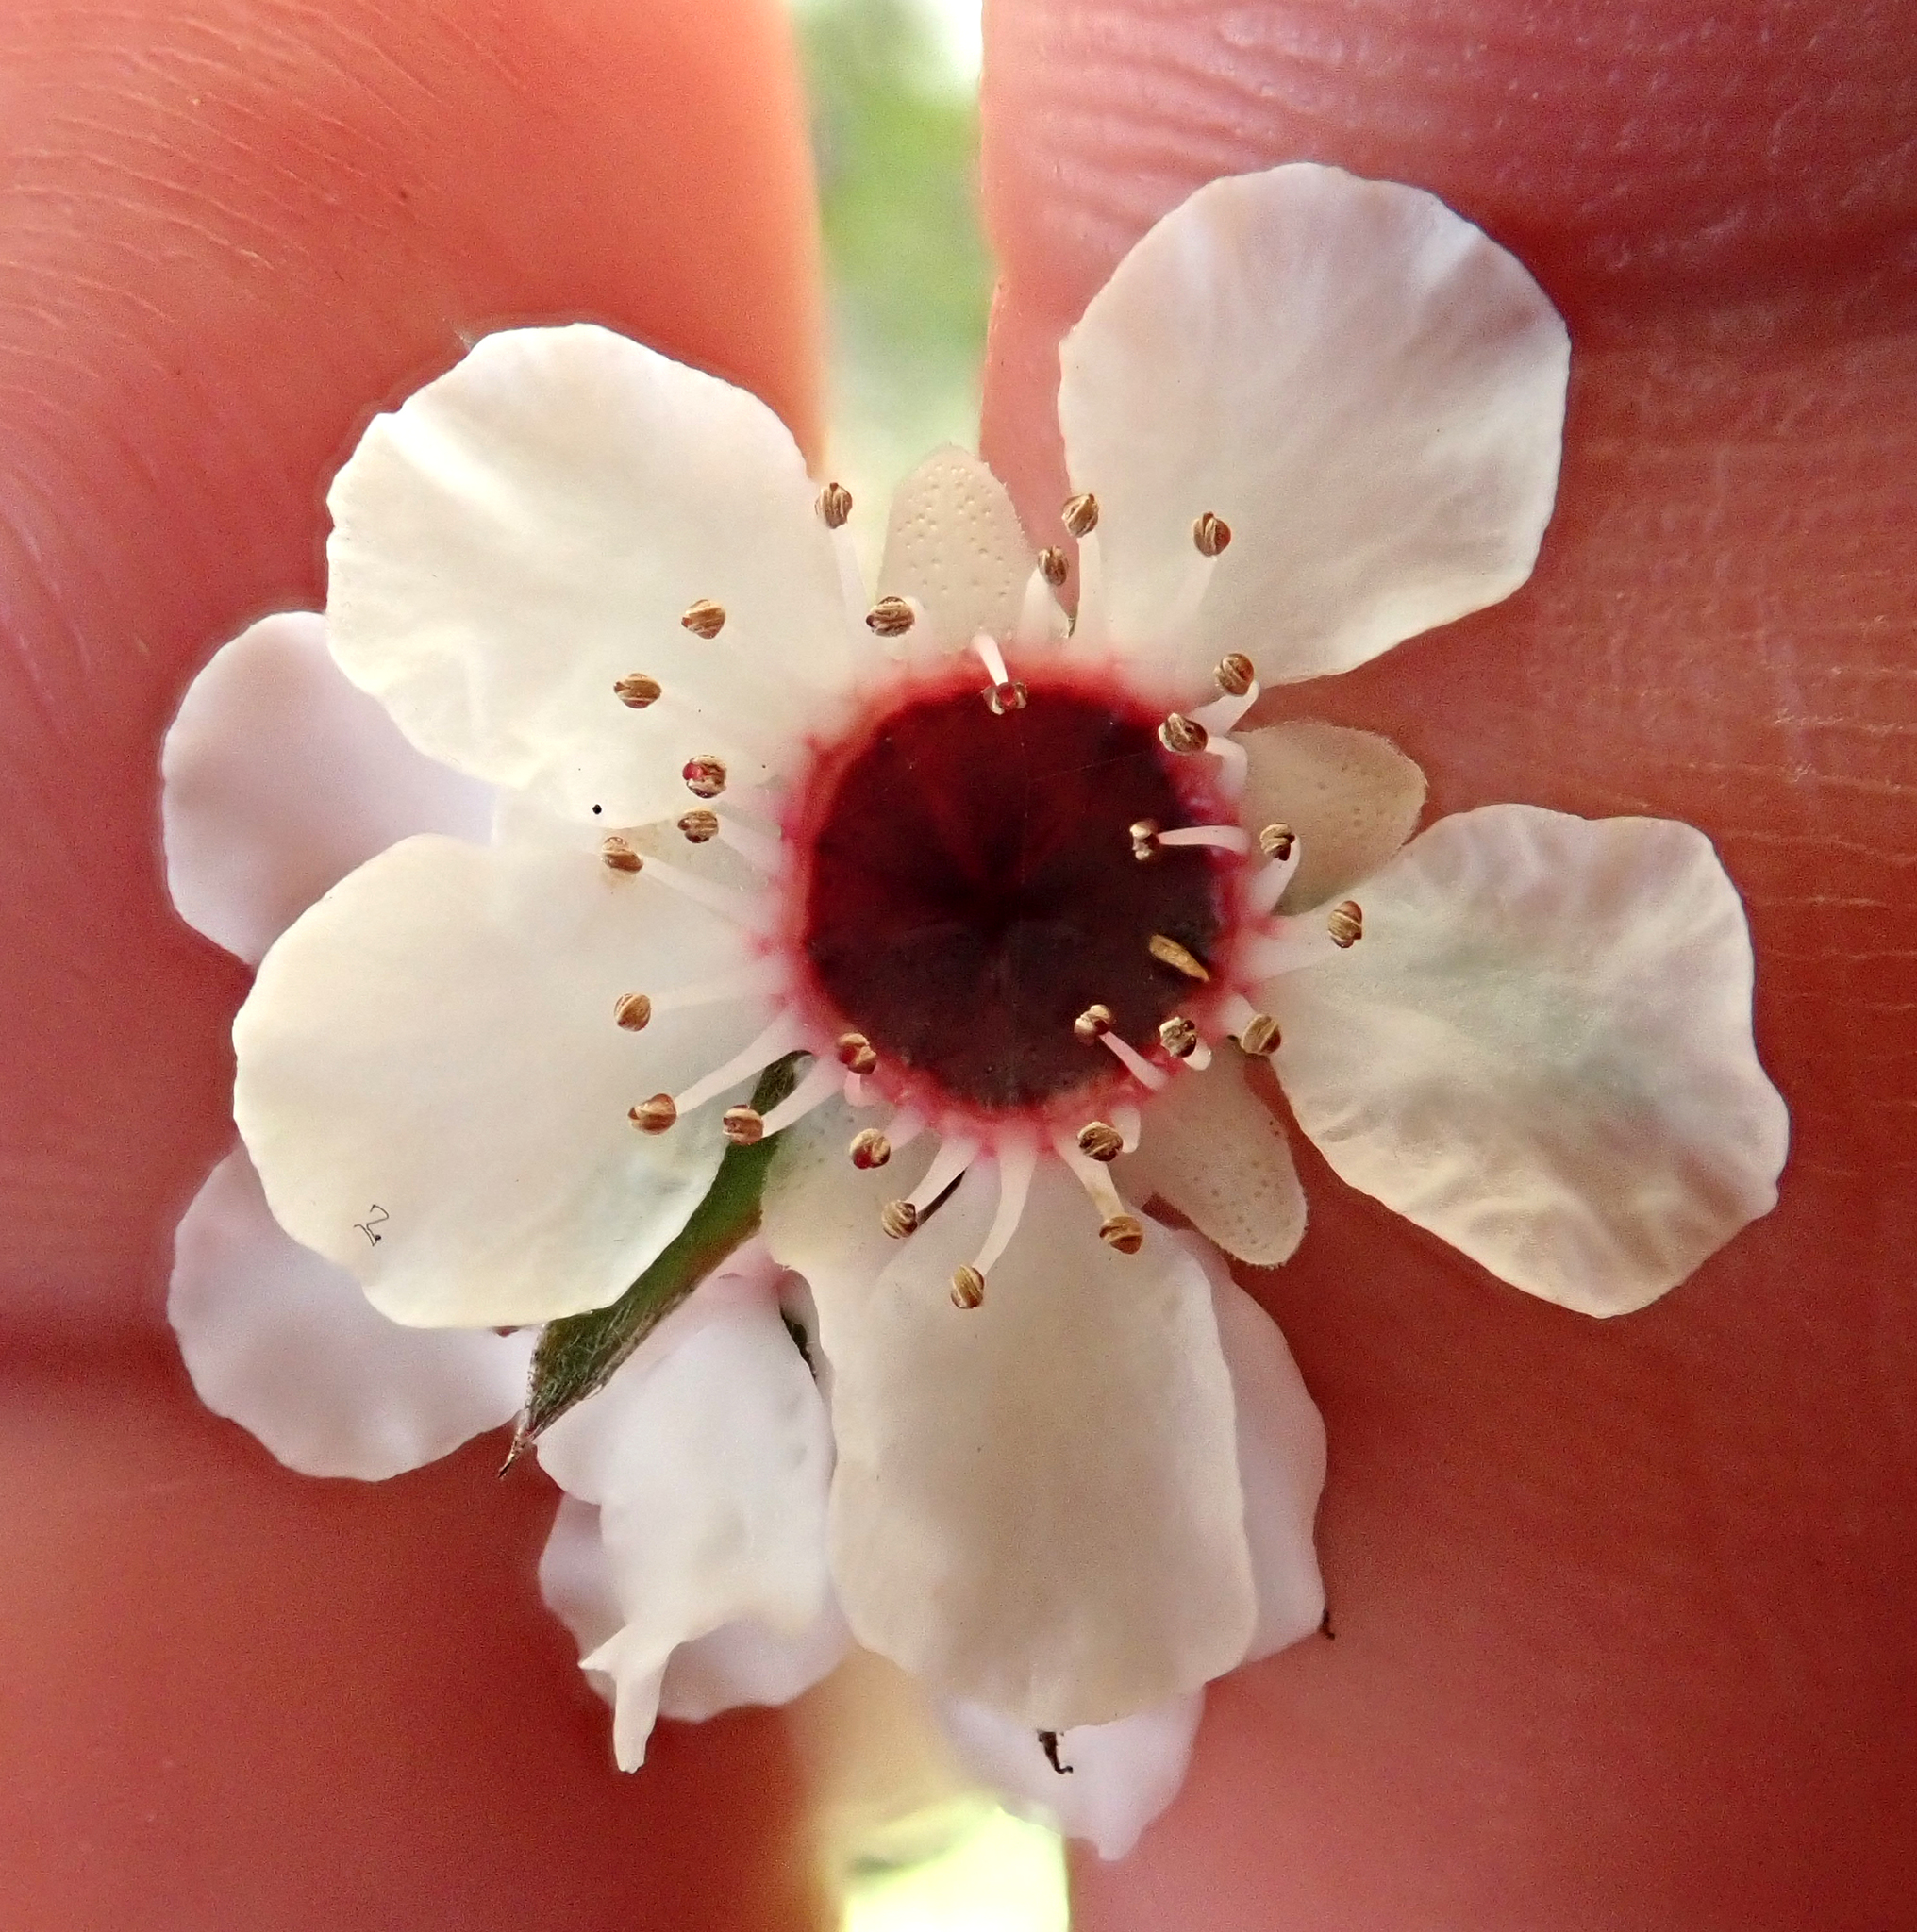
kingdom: Plantae
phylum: Tracheophyta
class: Magnoliopsida
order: Myrtales
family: Myrtaceae
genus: Leptospermum
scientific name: Leptospermum scoparium
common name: Broom tea-tree
